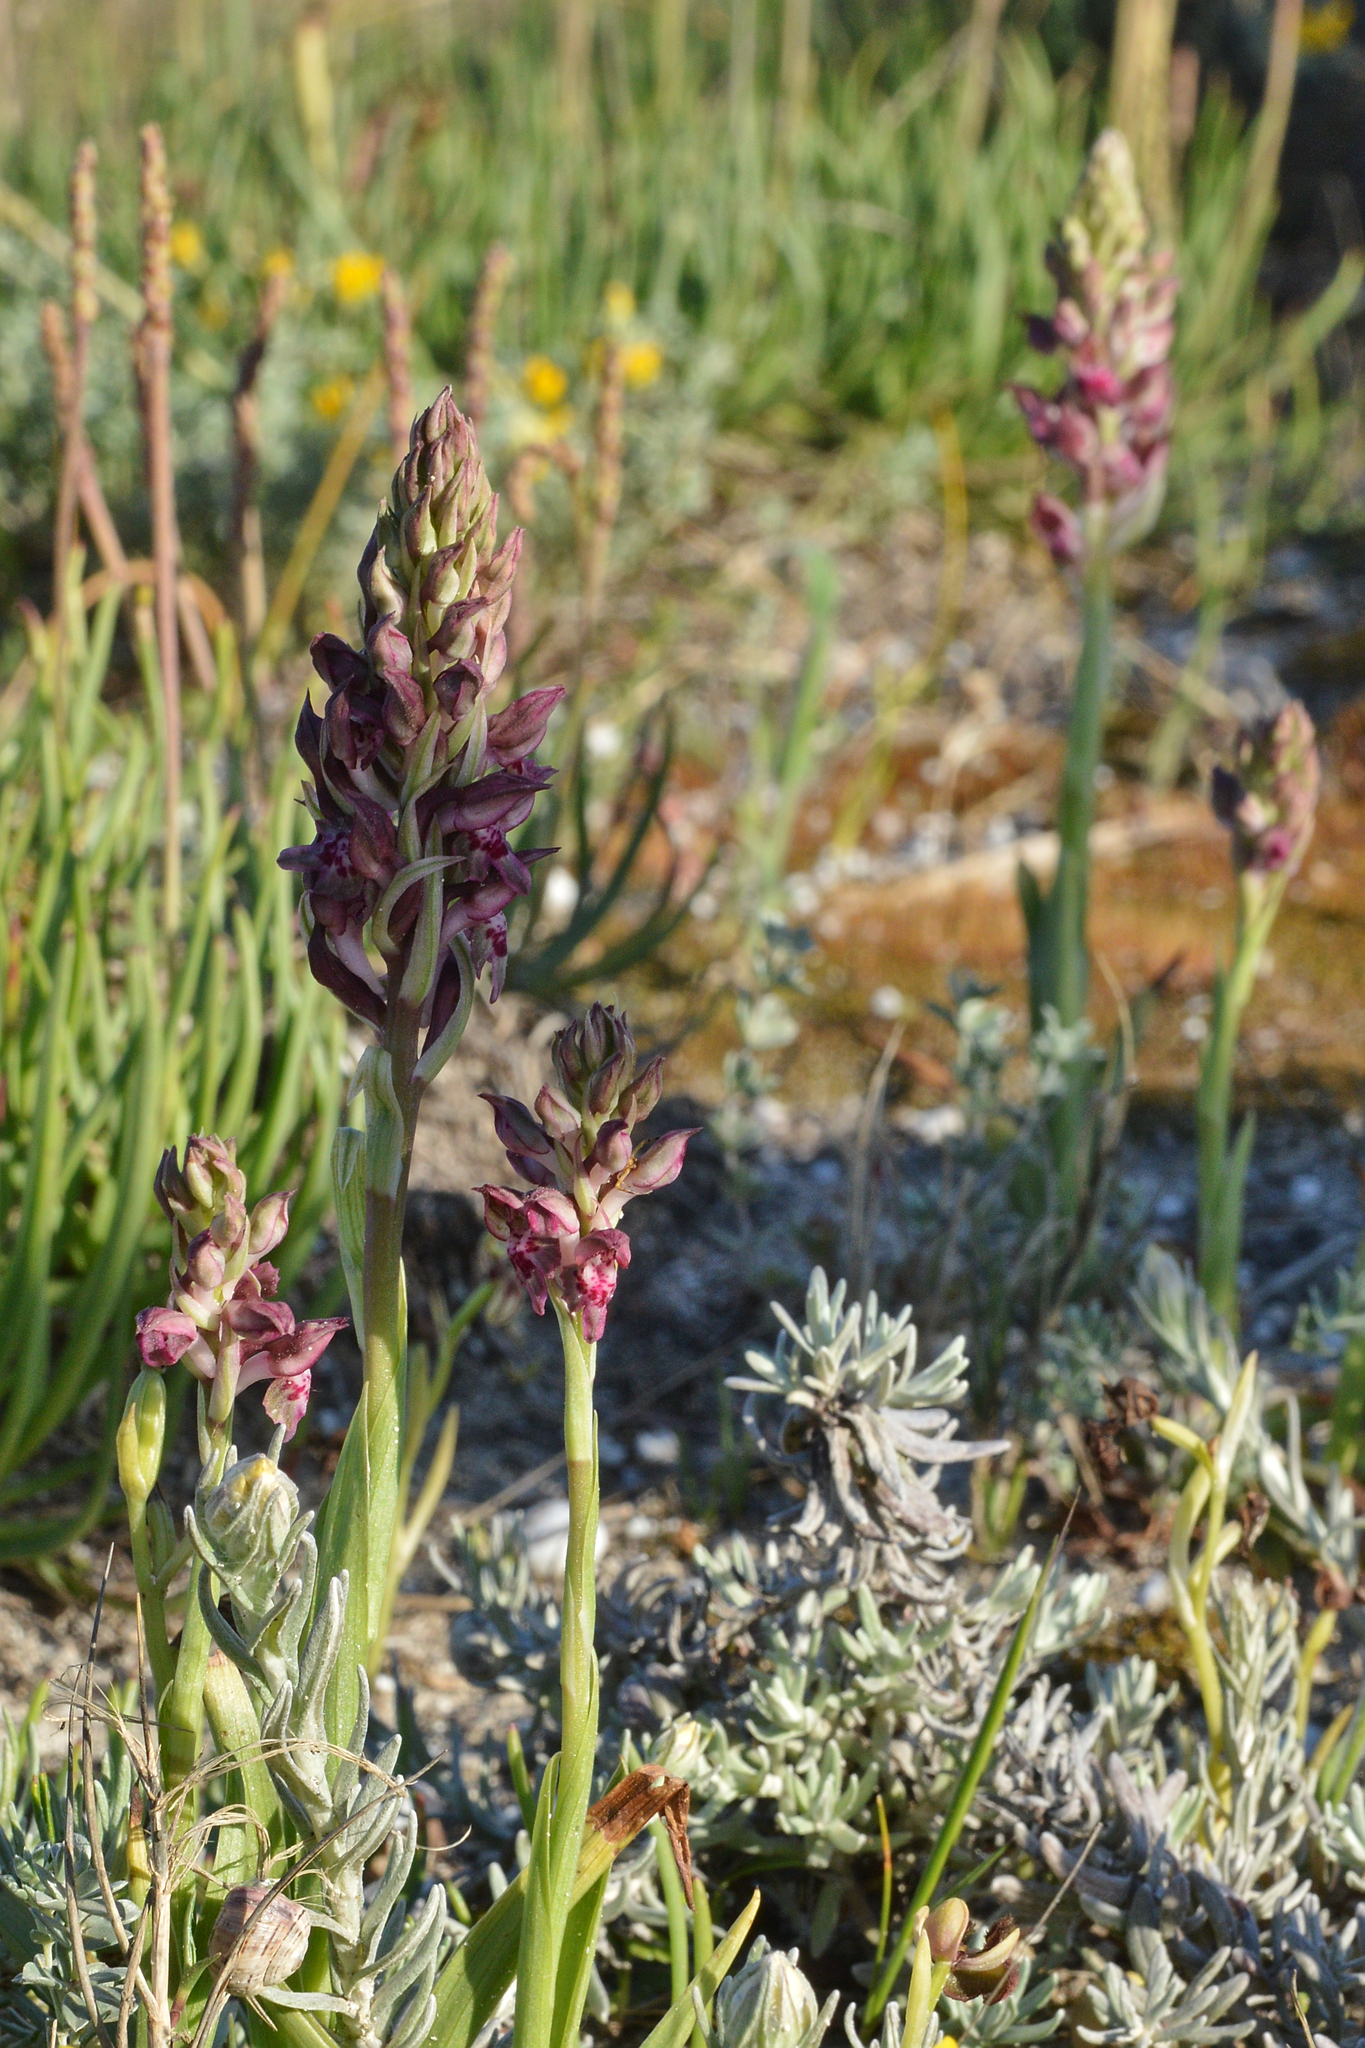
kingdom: Plantae
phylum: Tracheophyta
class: Liliopsida
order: Asparagales
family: Orchidaceae
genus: Anacamptis
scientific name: Anacamptis coriophora
